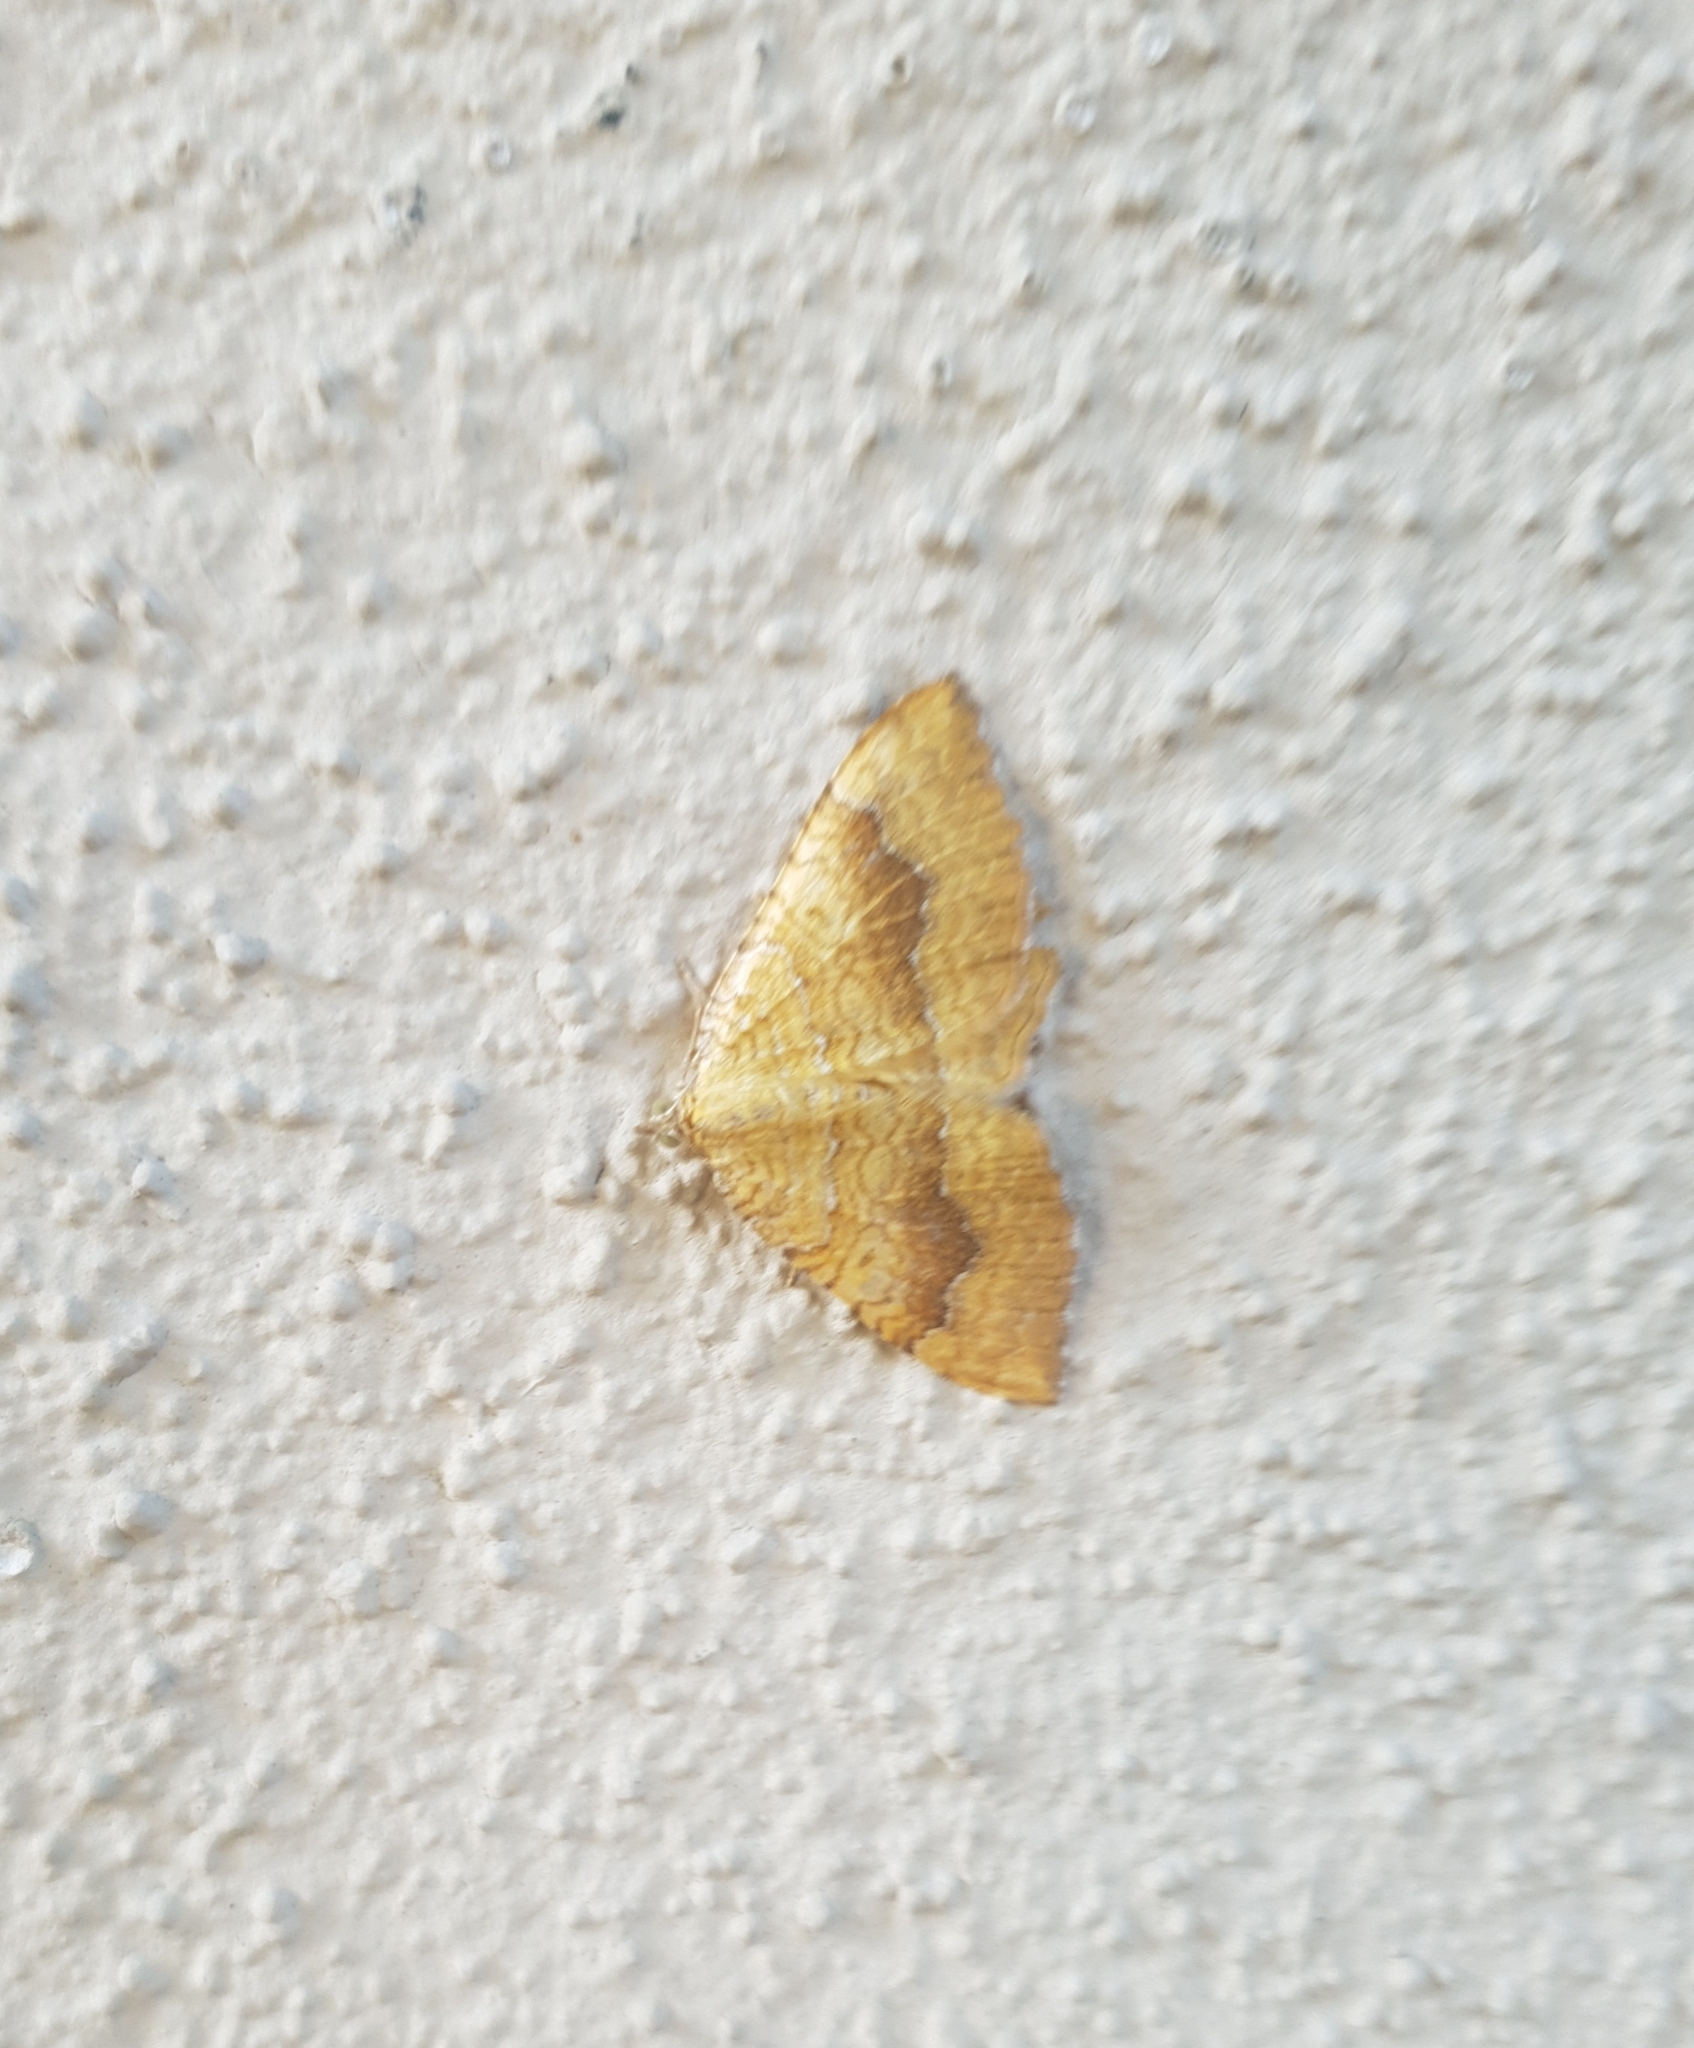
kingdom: Animalia
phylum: Arthropoda
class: Insecta
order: Lepidoptera
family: Geometridae
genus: Camptogramma
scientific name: Camptogramma bilineata
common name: Yellow shell
